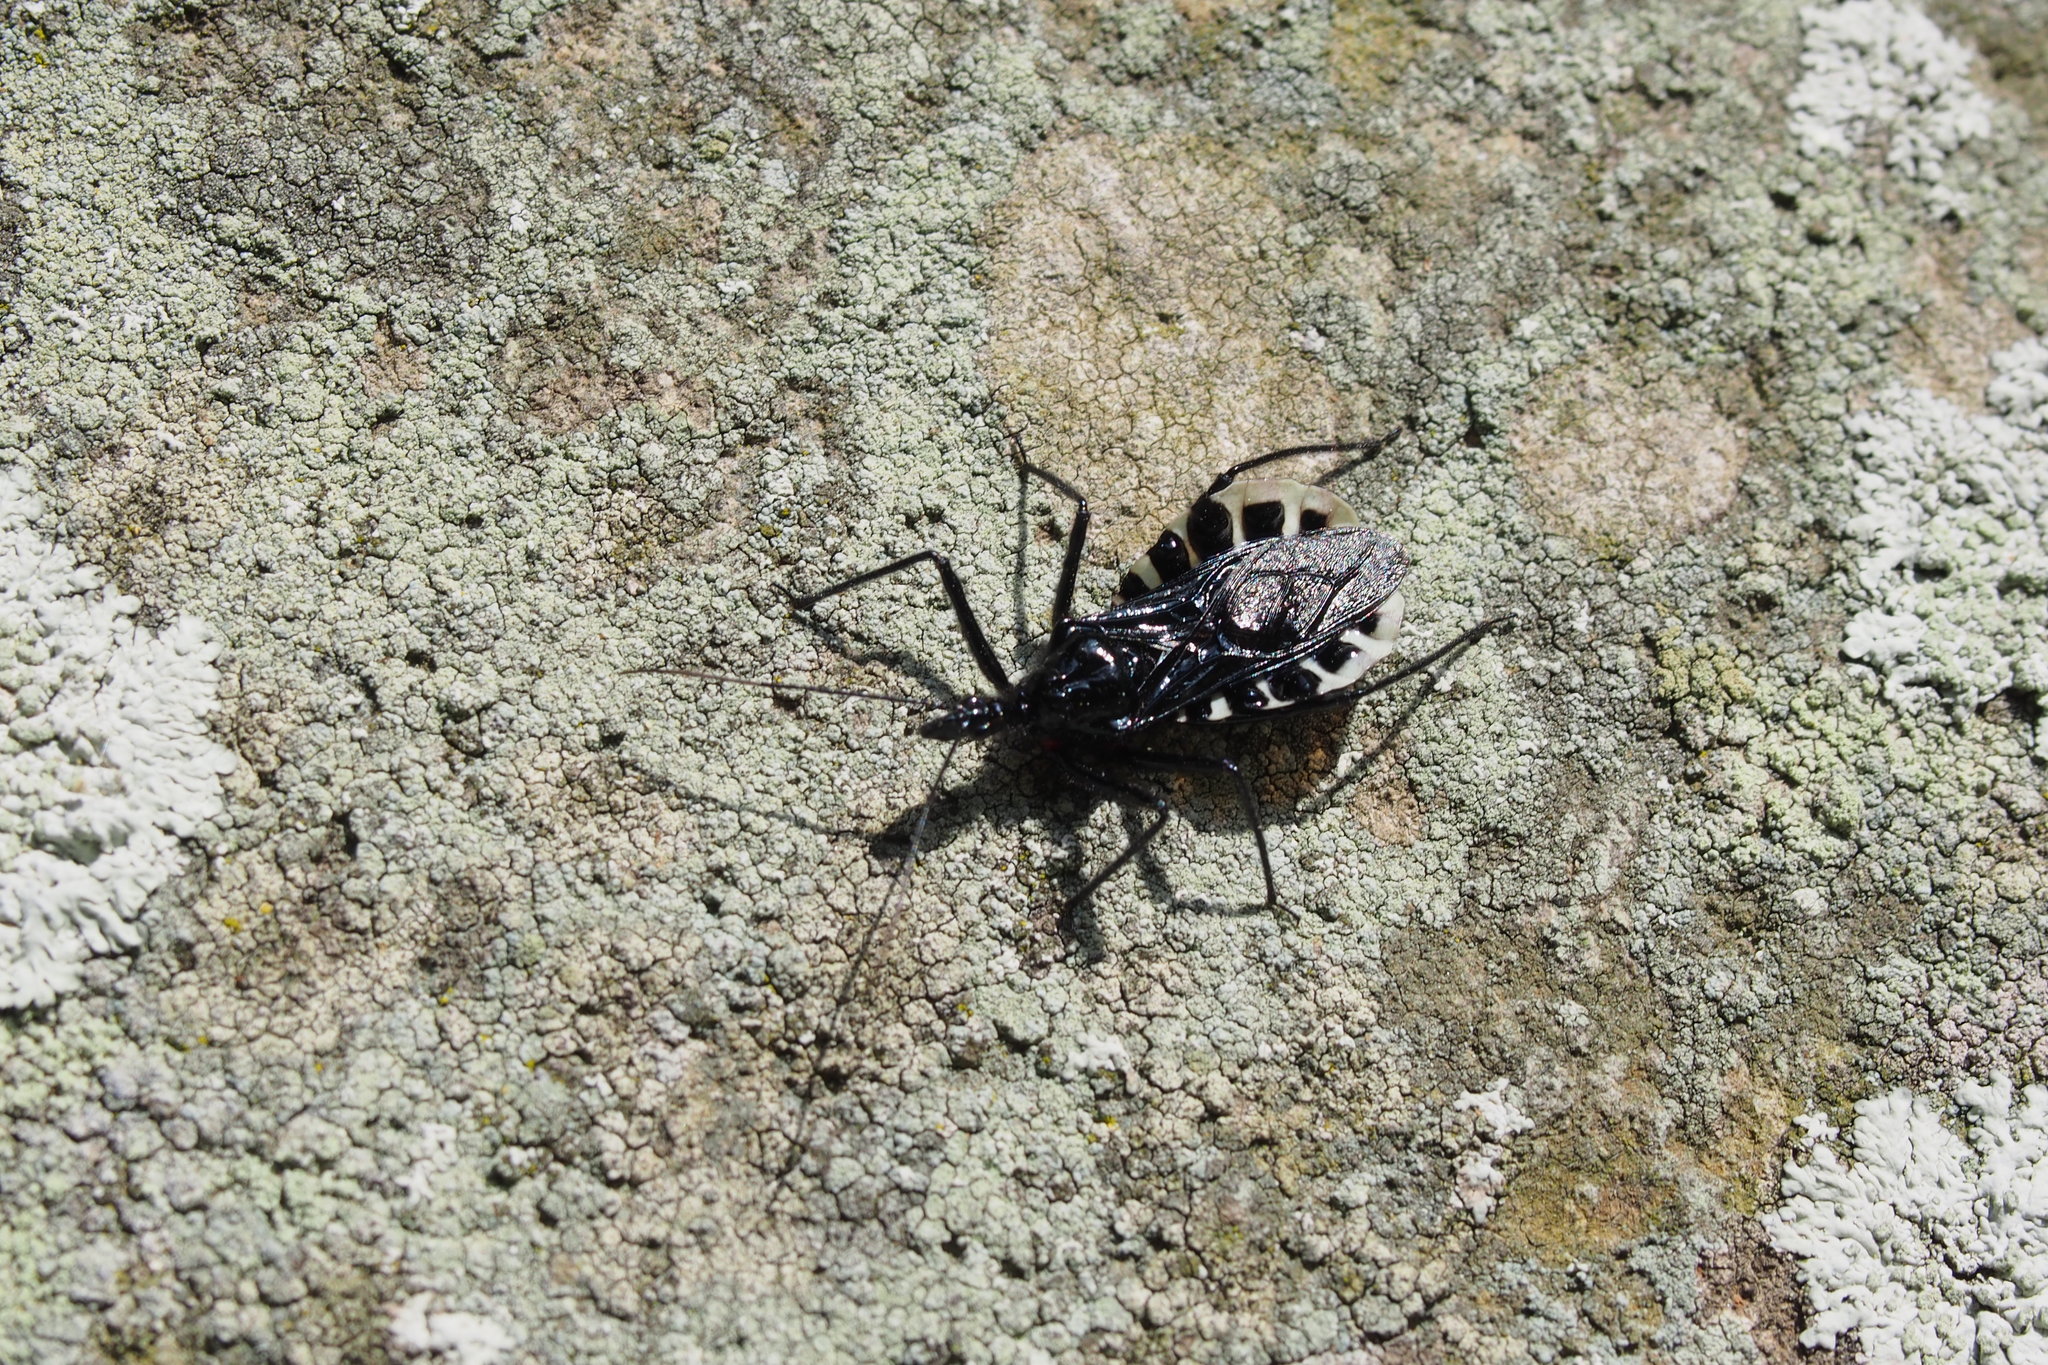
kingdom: Animalia
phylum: Arthropoda
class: Insecta
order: Hemiptera
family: Reduviidae
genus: Agriosphodrus
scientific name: Agriosphodrus dohrni
